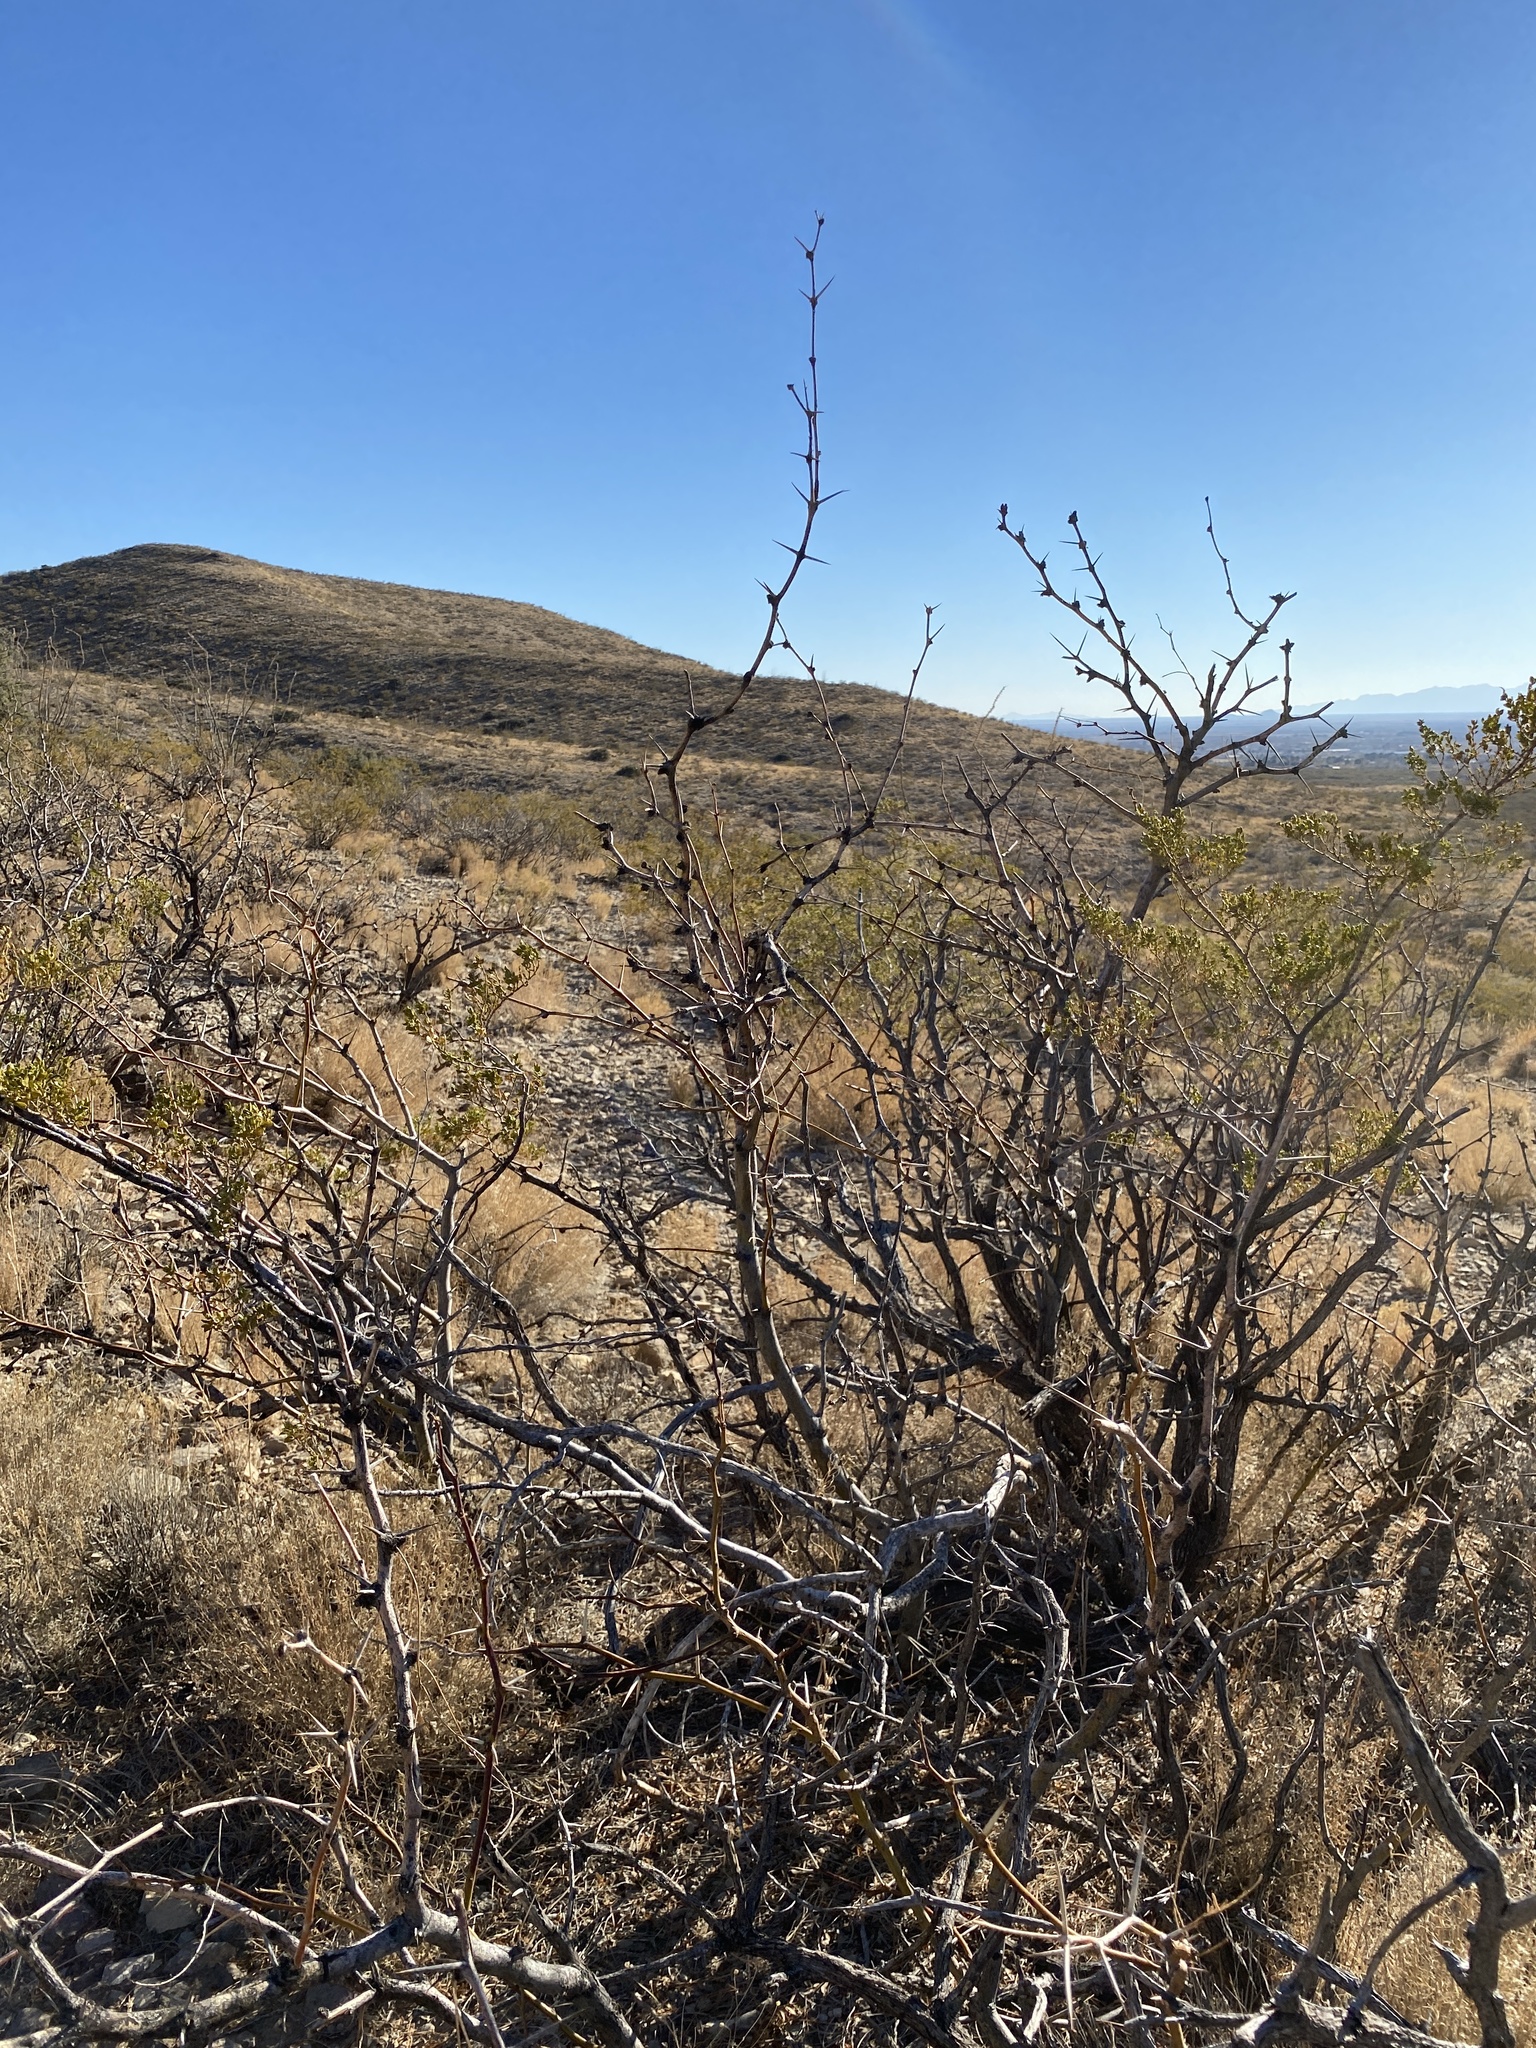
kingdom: Plantae
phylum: Tracheophyta
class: Magnoliopsida
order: Fabales
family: Fabaceae
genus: Prosopis
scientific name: Prosopis glandulosa
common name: Honey mesquite
